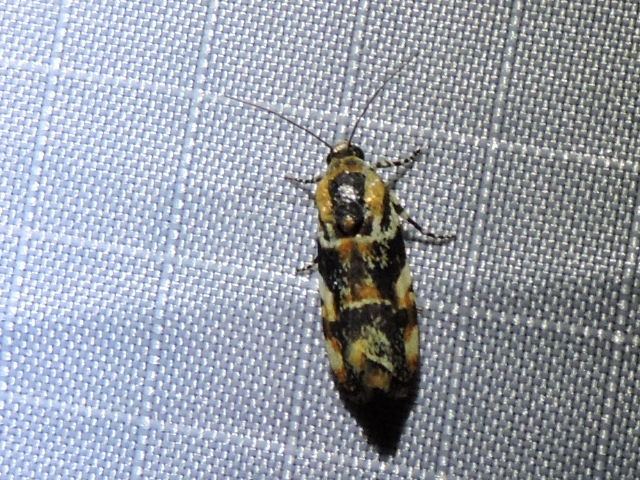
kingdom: Animalia
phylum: Arthropoda
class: Insecta
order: Lepidoptera
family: Noctuidae
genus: Spragueia
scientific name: Spragueia jaguaralis
